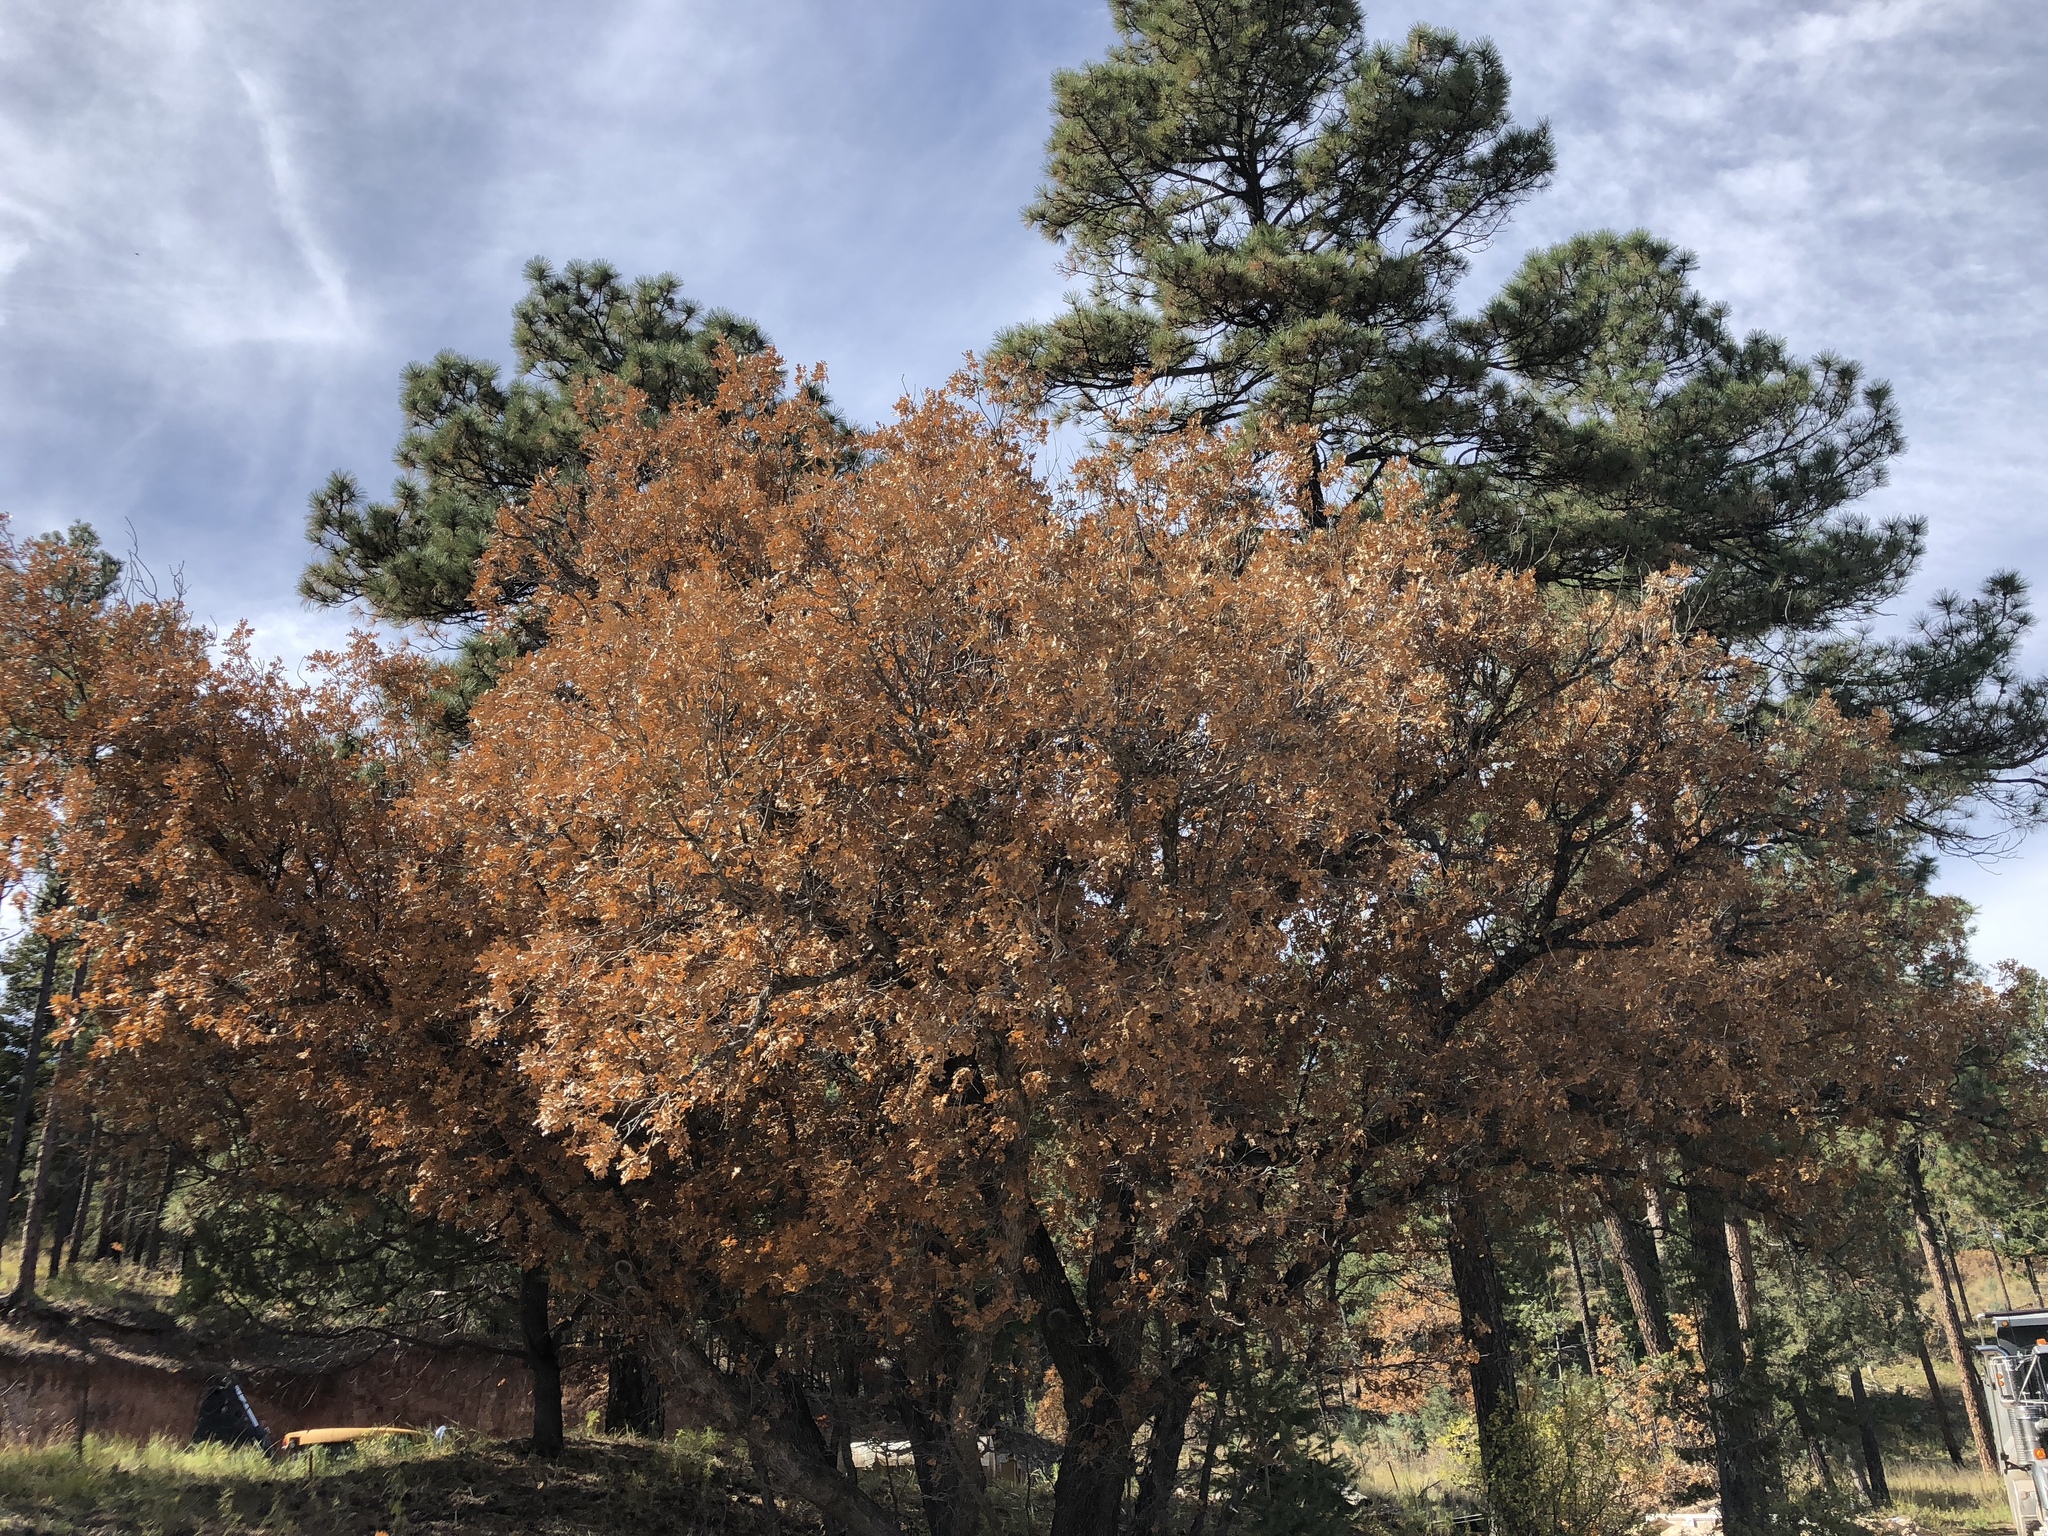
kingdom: Plantae
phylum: Tracheophyta
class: Magnoliopsida
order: Fagales
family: Fagaceae
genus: Quercus
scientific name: Quercus gambelii
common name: Gambel oak
